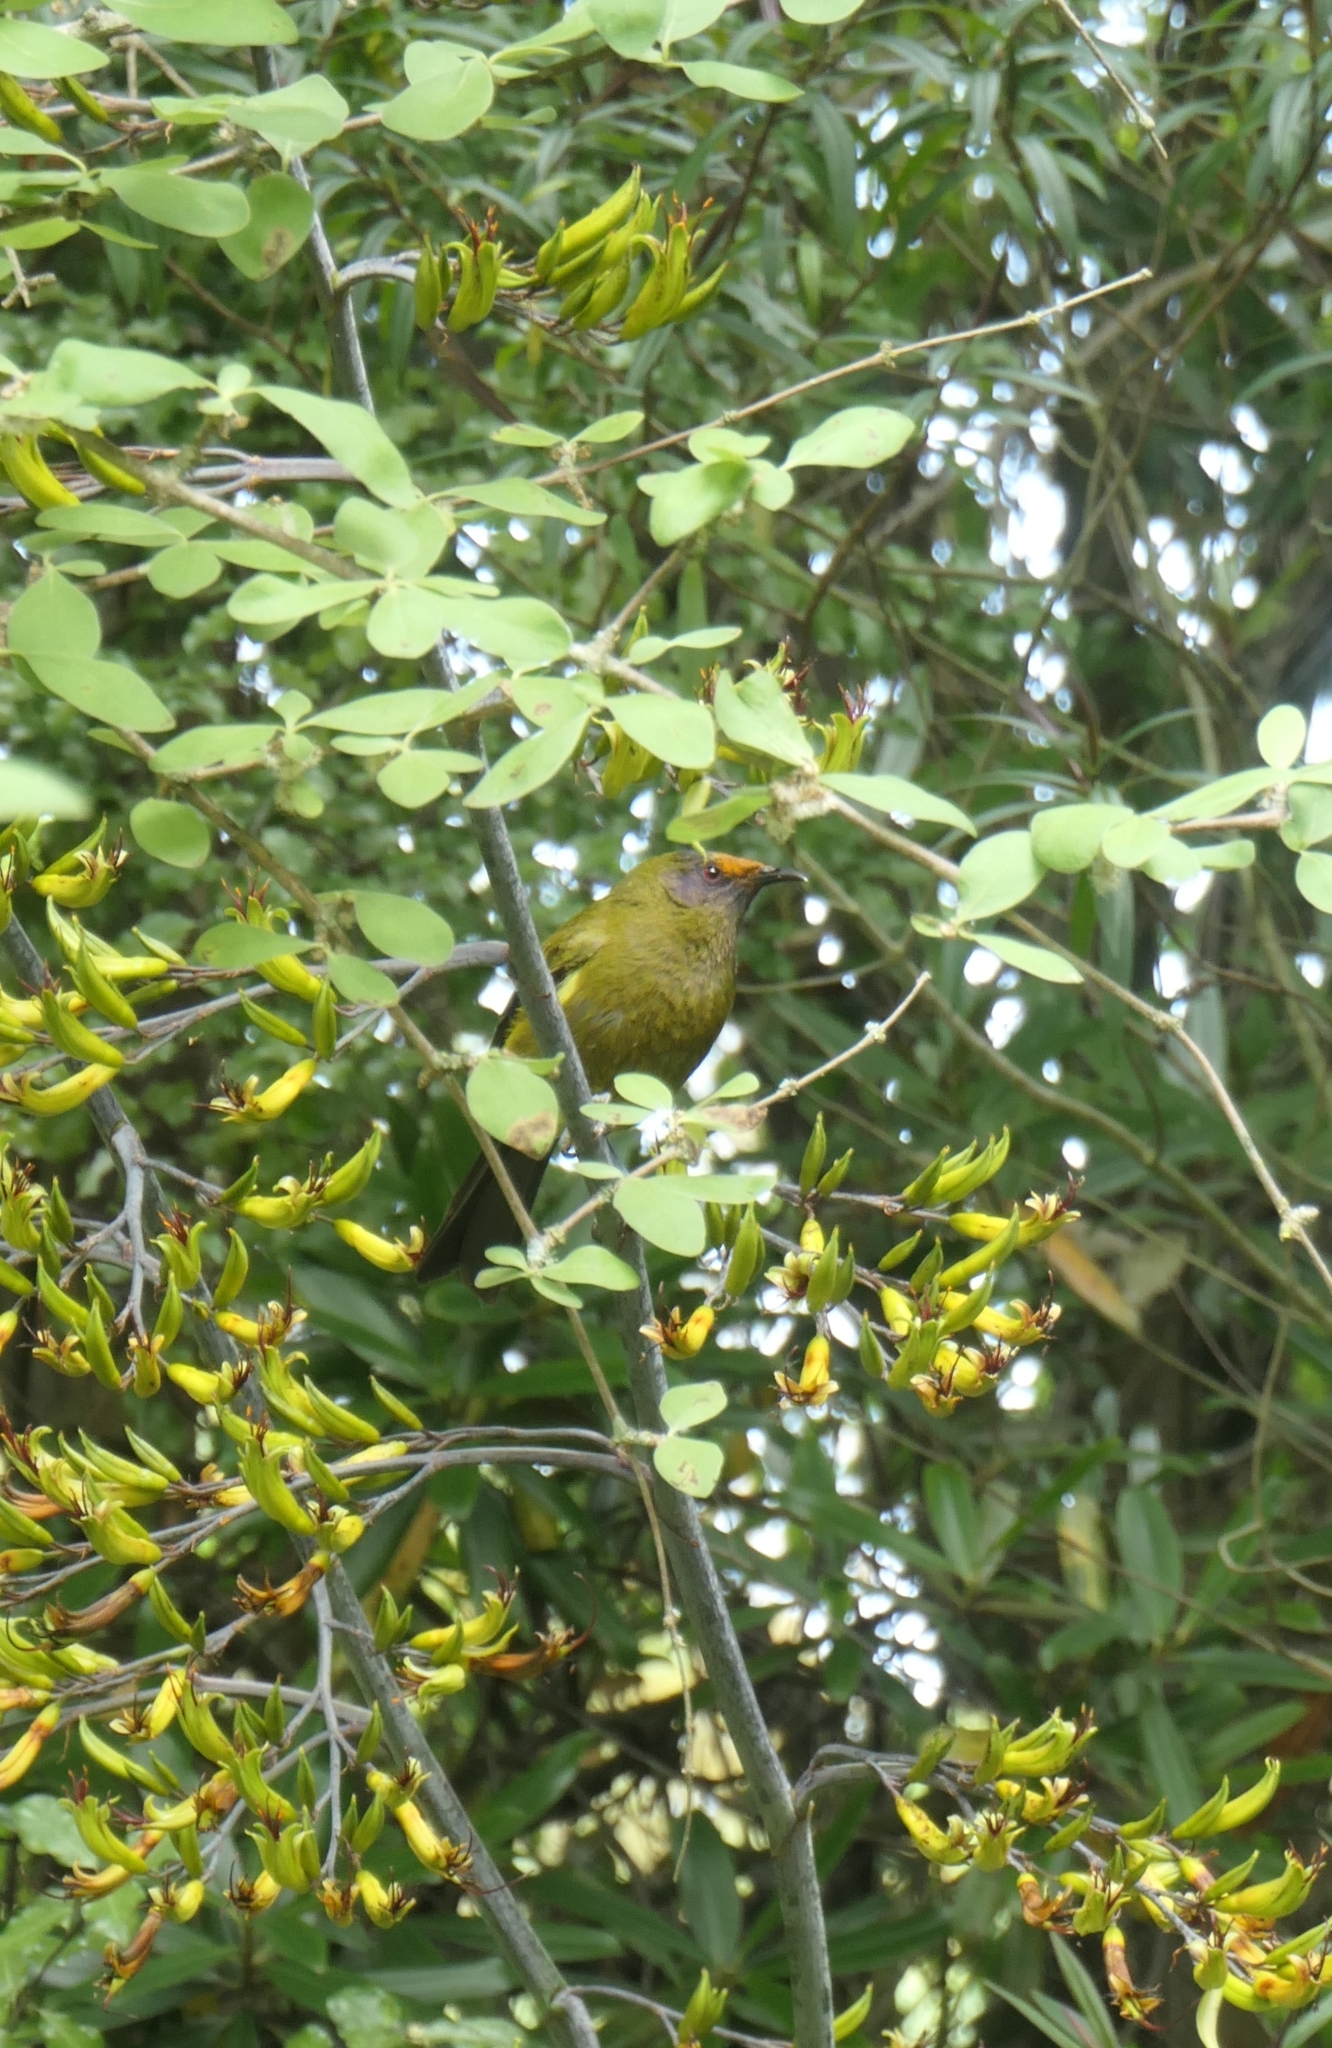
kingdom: Animalia
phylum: Chordata
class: Aves
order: Passeriformes
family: Meliphagidae
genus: Anthornis
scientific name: Anthornis melanura
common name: New zealand bellbird
